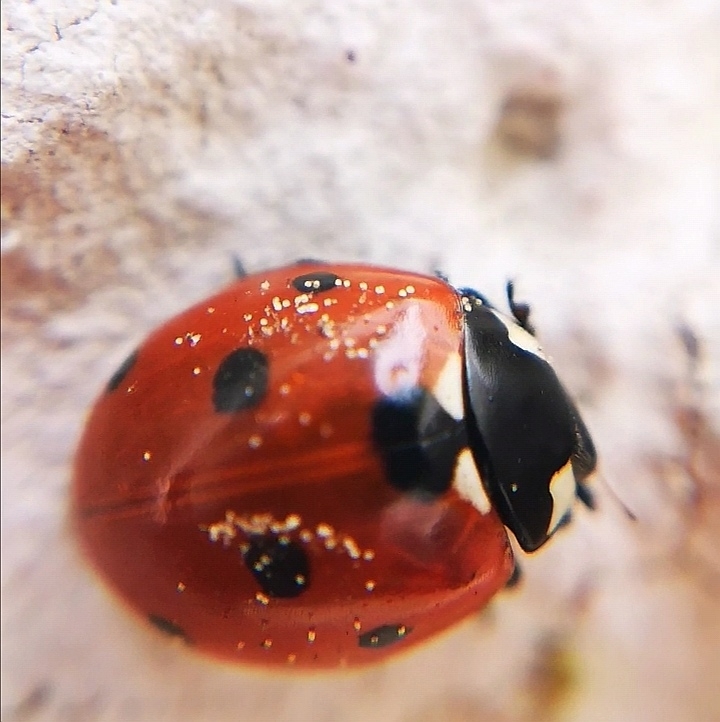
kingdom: Animalia
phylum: Arthropoda
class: Insecta
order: Coleoptera
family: Coccinellidae
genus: Coccinella
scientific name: Coccinella septempunctata
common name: Sevenspotted lady beetle
